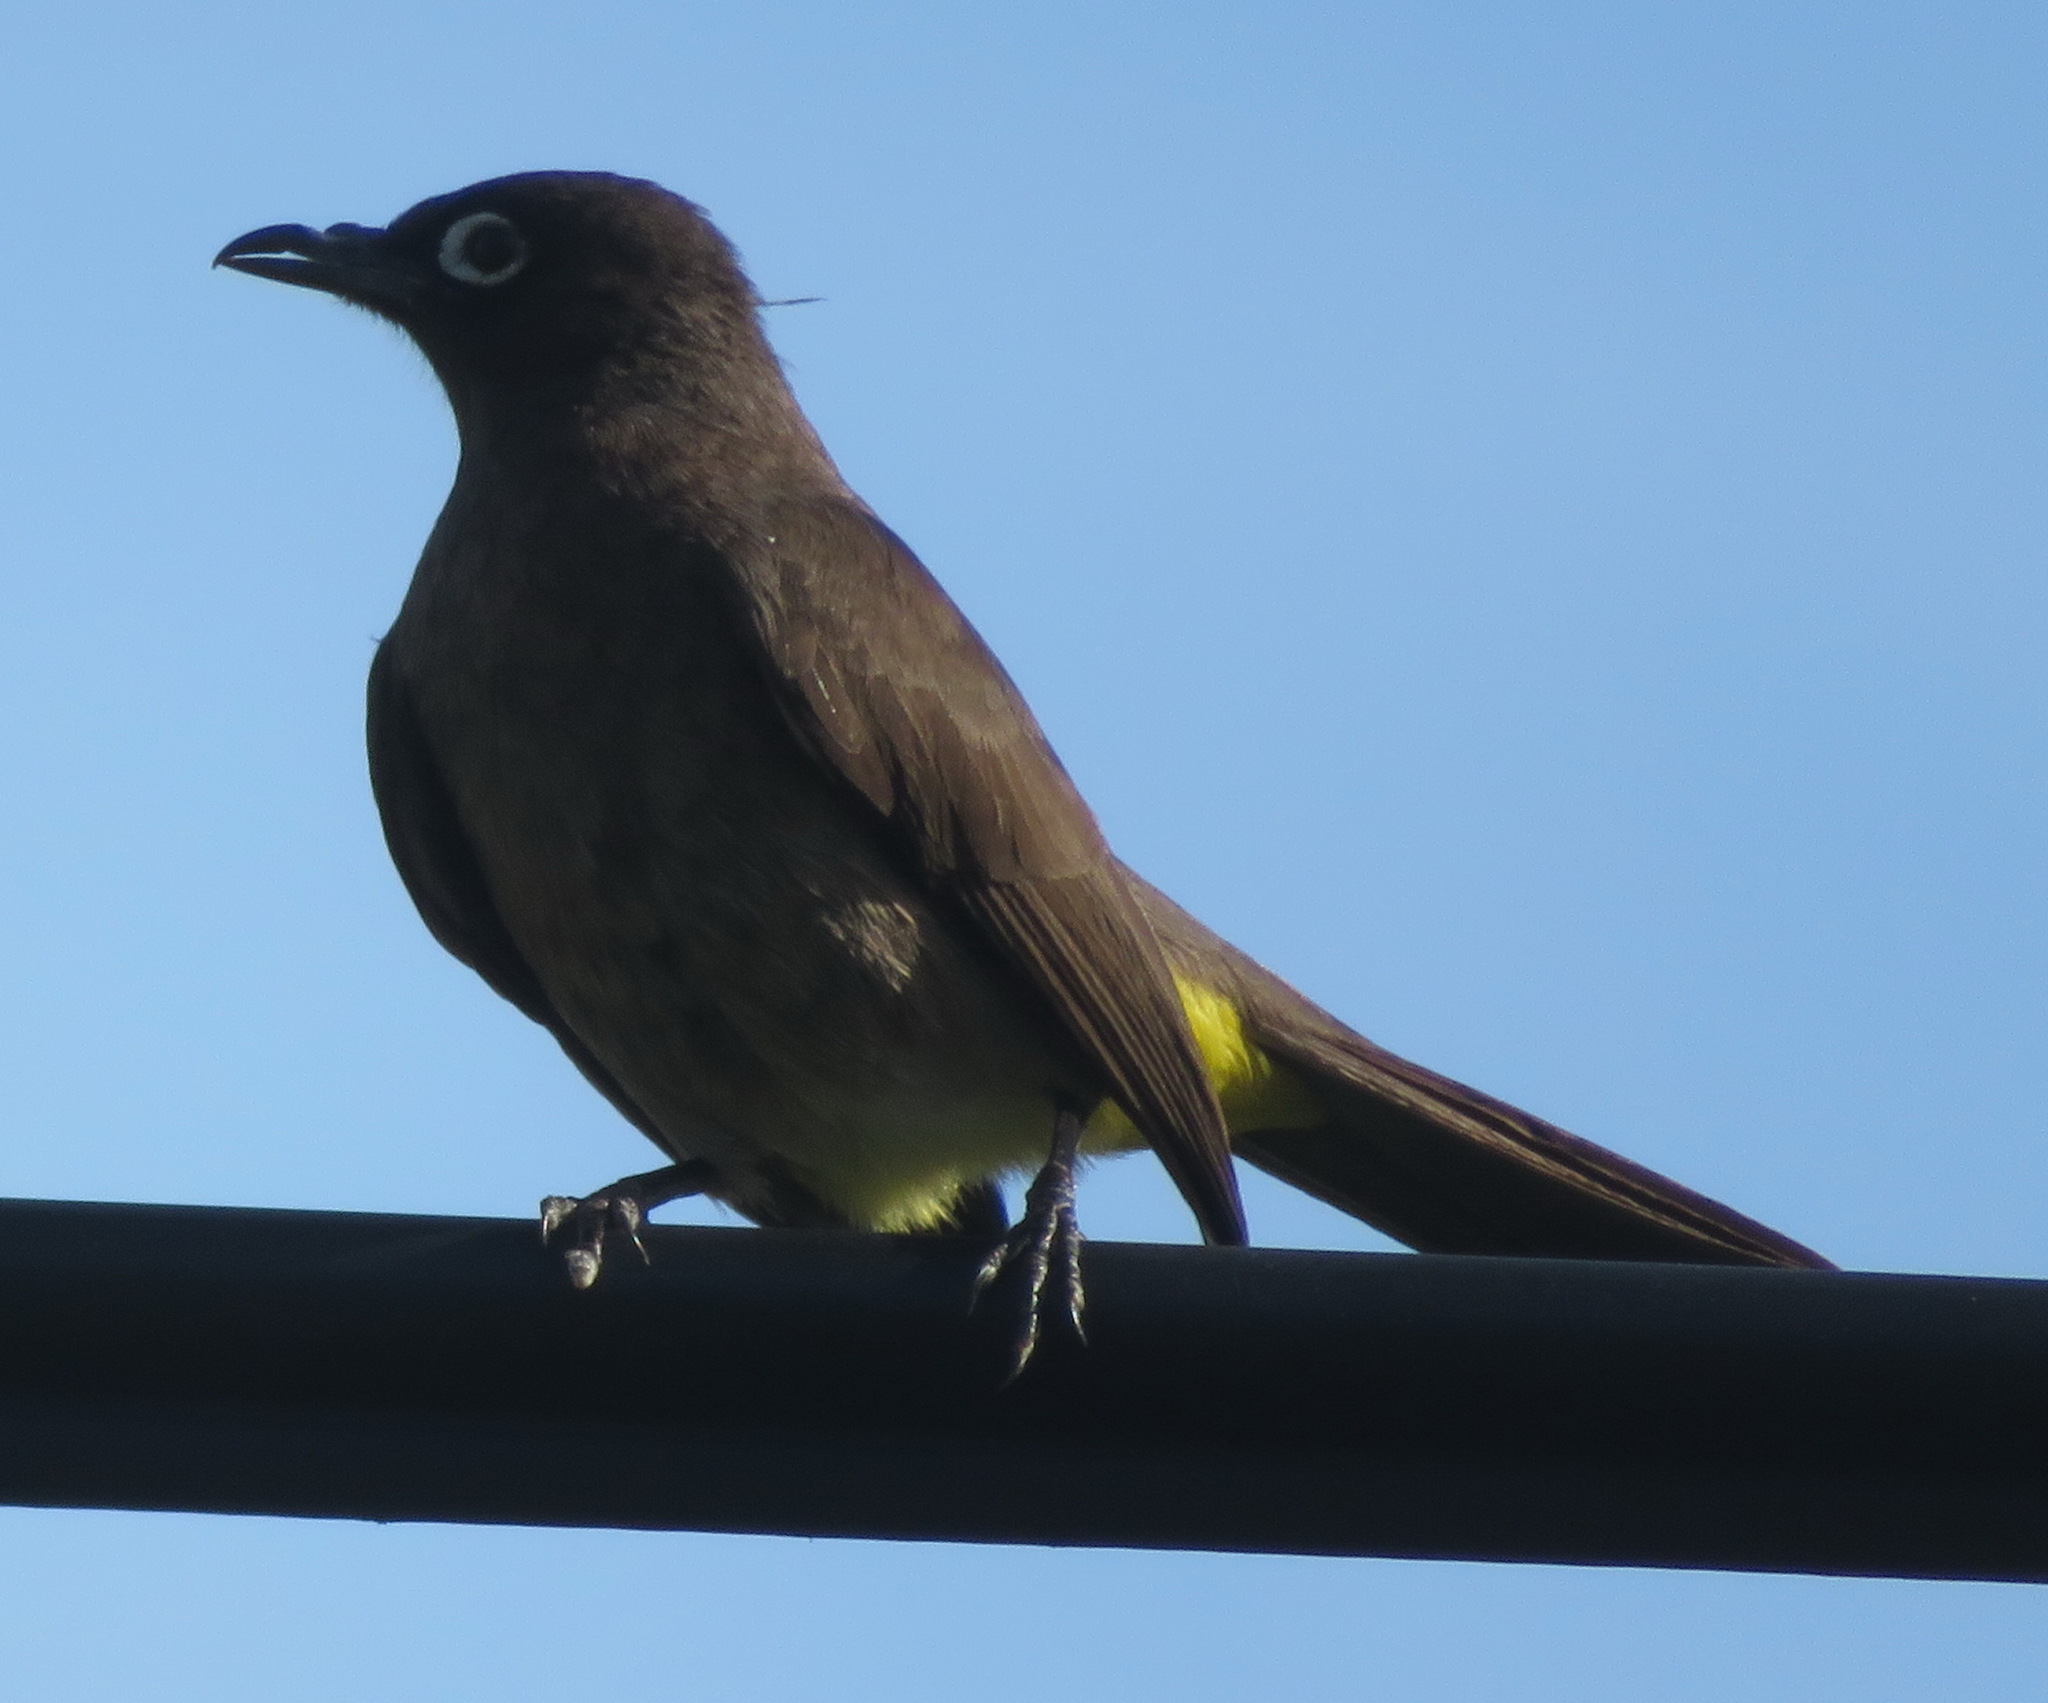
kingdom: Animalia
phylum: Chordata
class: Aves
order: Passeriformes
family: Pycnonotidae
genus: Pycnonotus
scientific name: Pycnonotus capensis
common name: Cape bulbul
